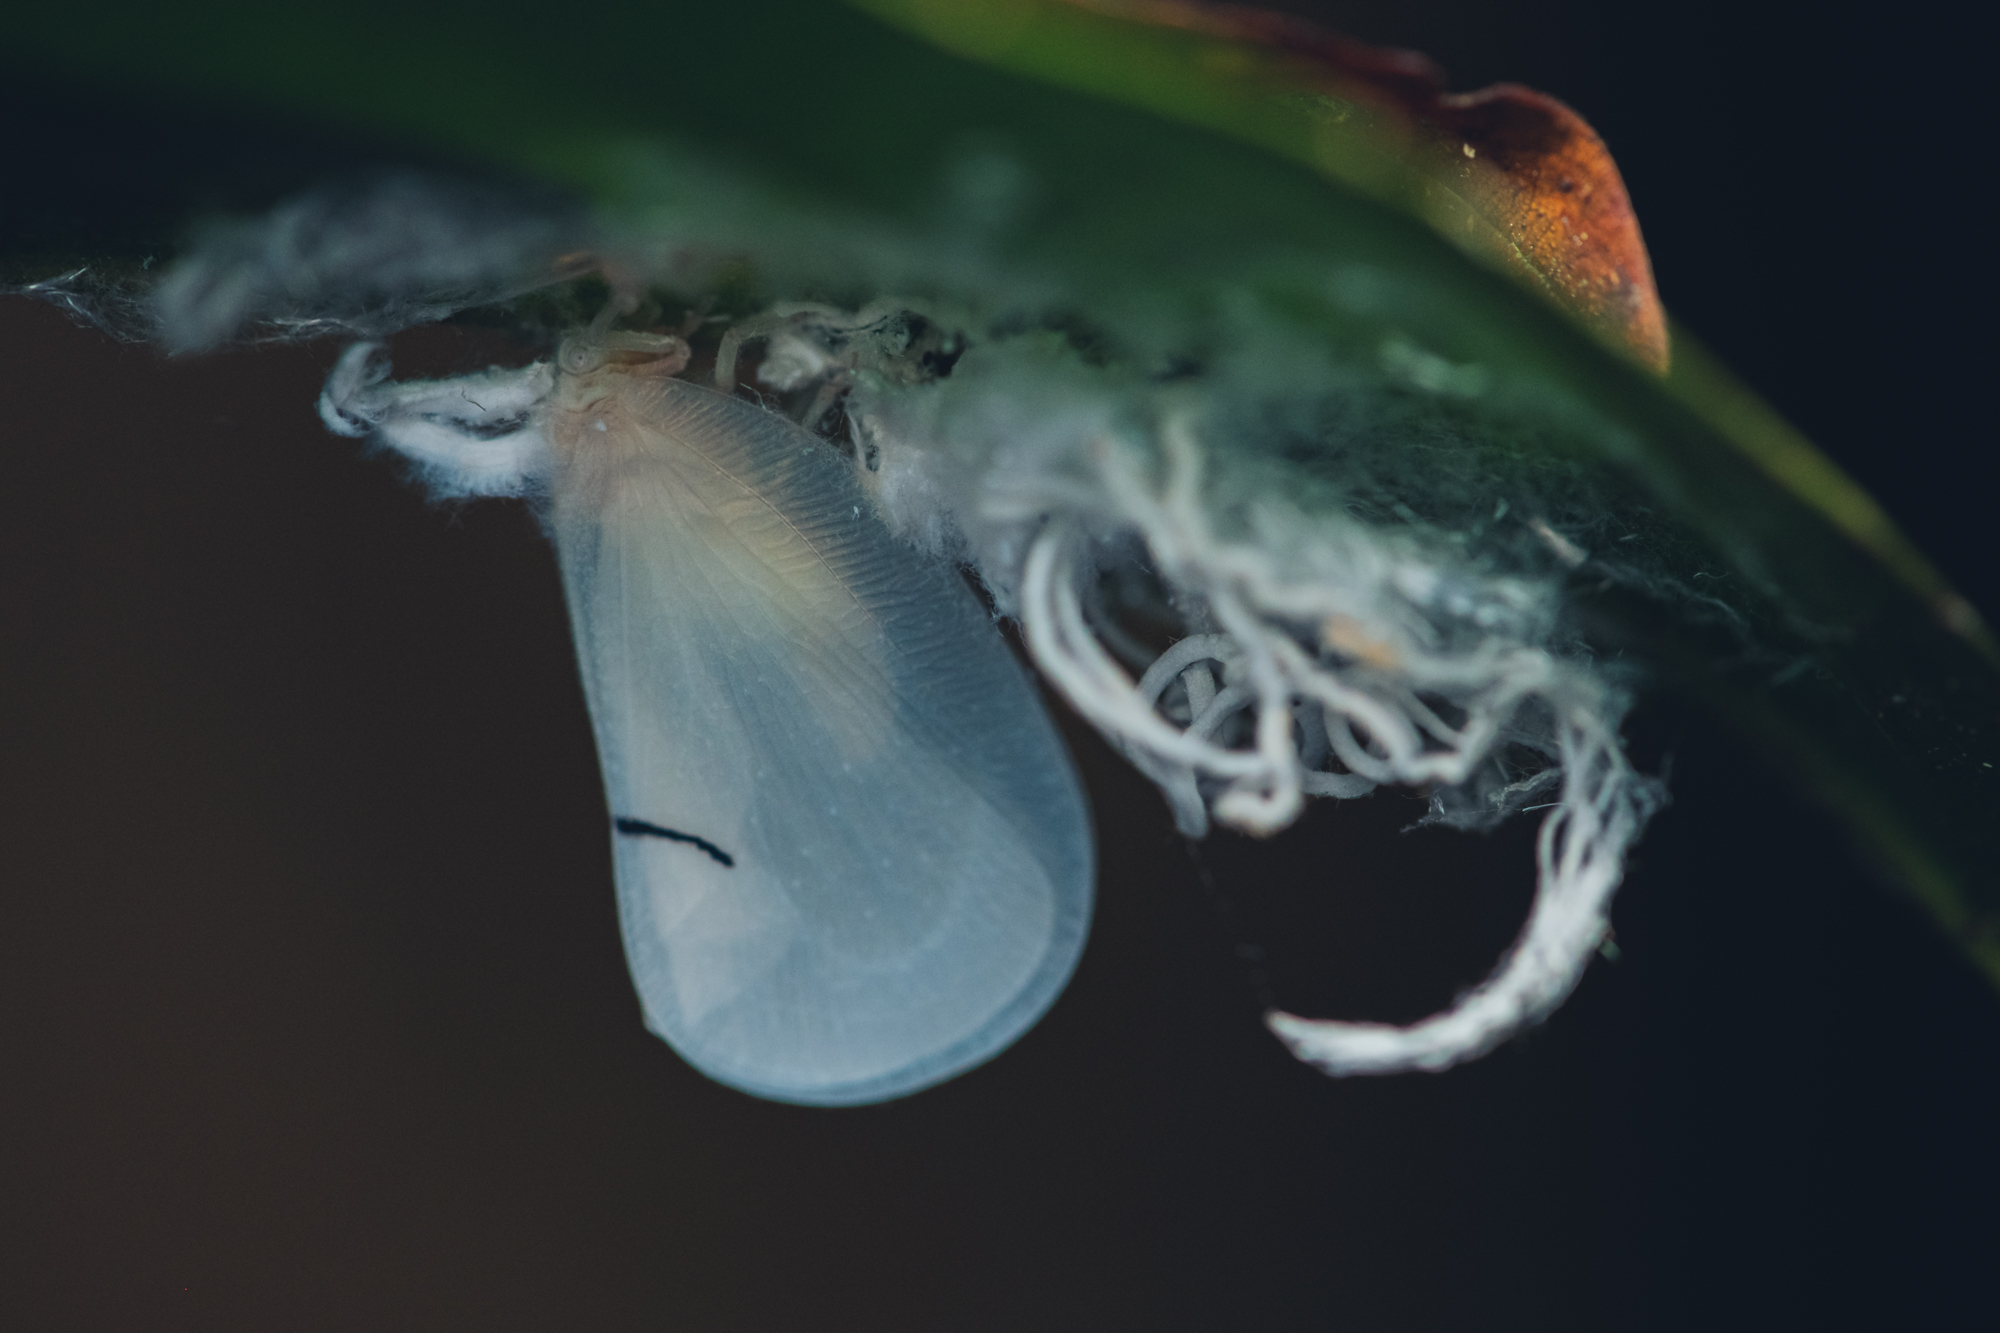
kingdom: Animalia
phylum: Arthropoda
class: Insecta
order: Hemiptera
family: Flatidae
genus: Cerynia
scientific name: Cerynia lineola
